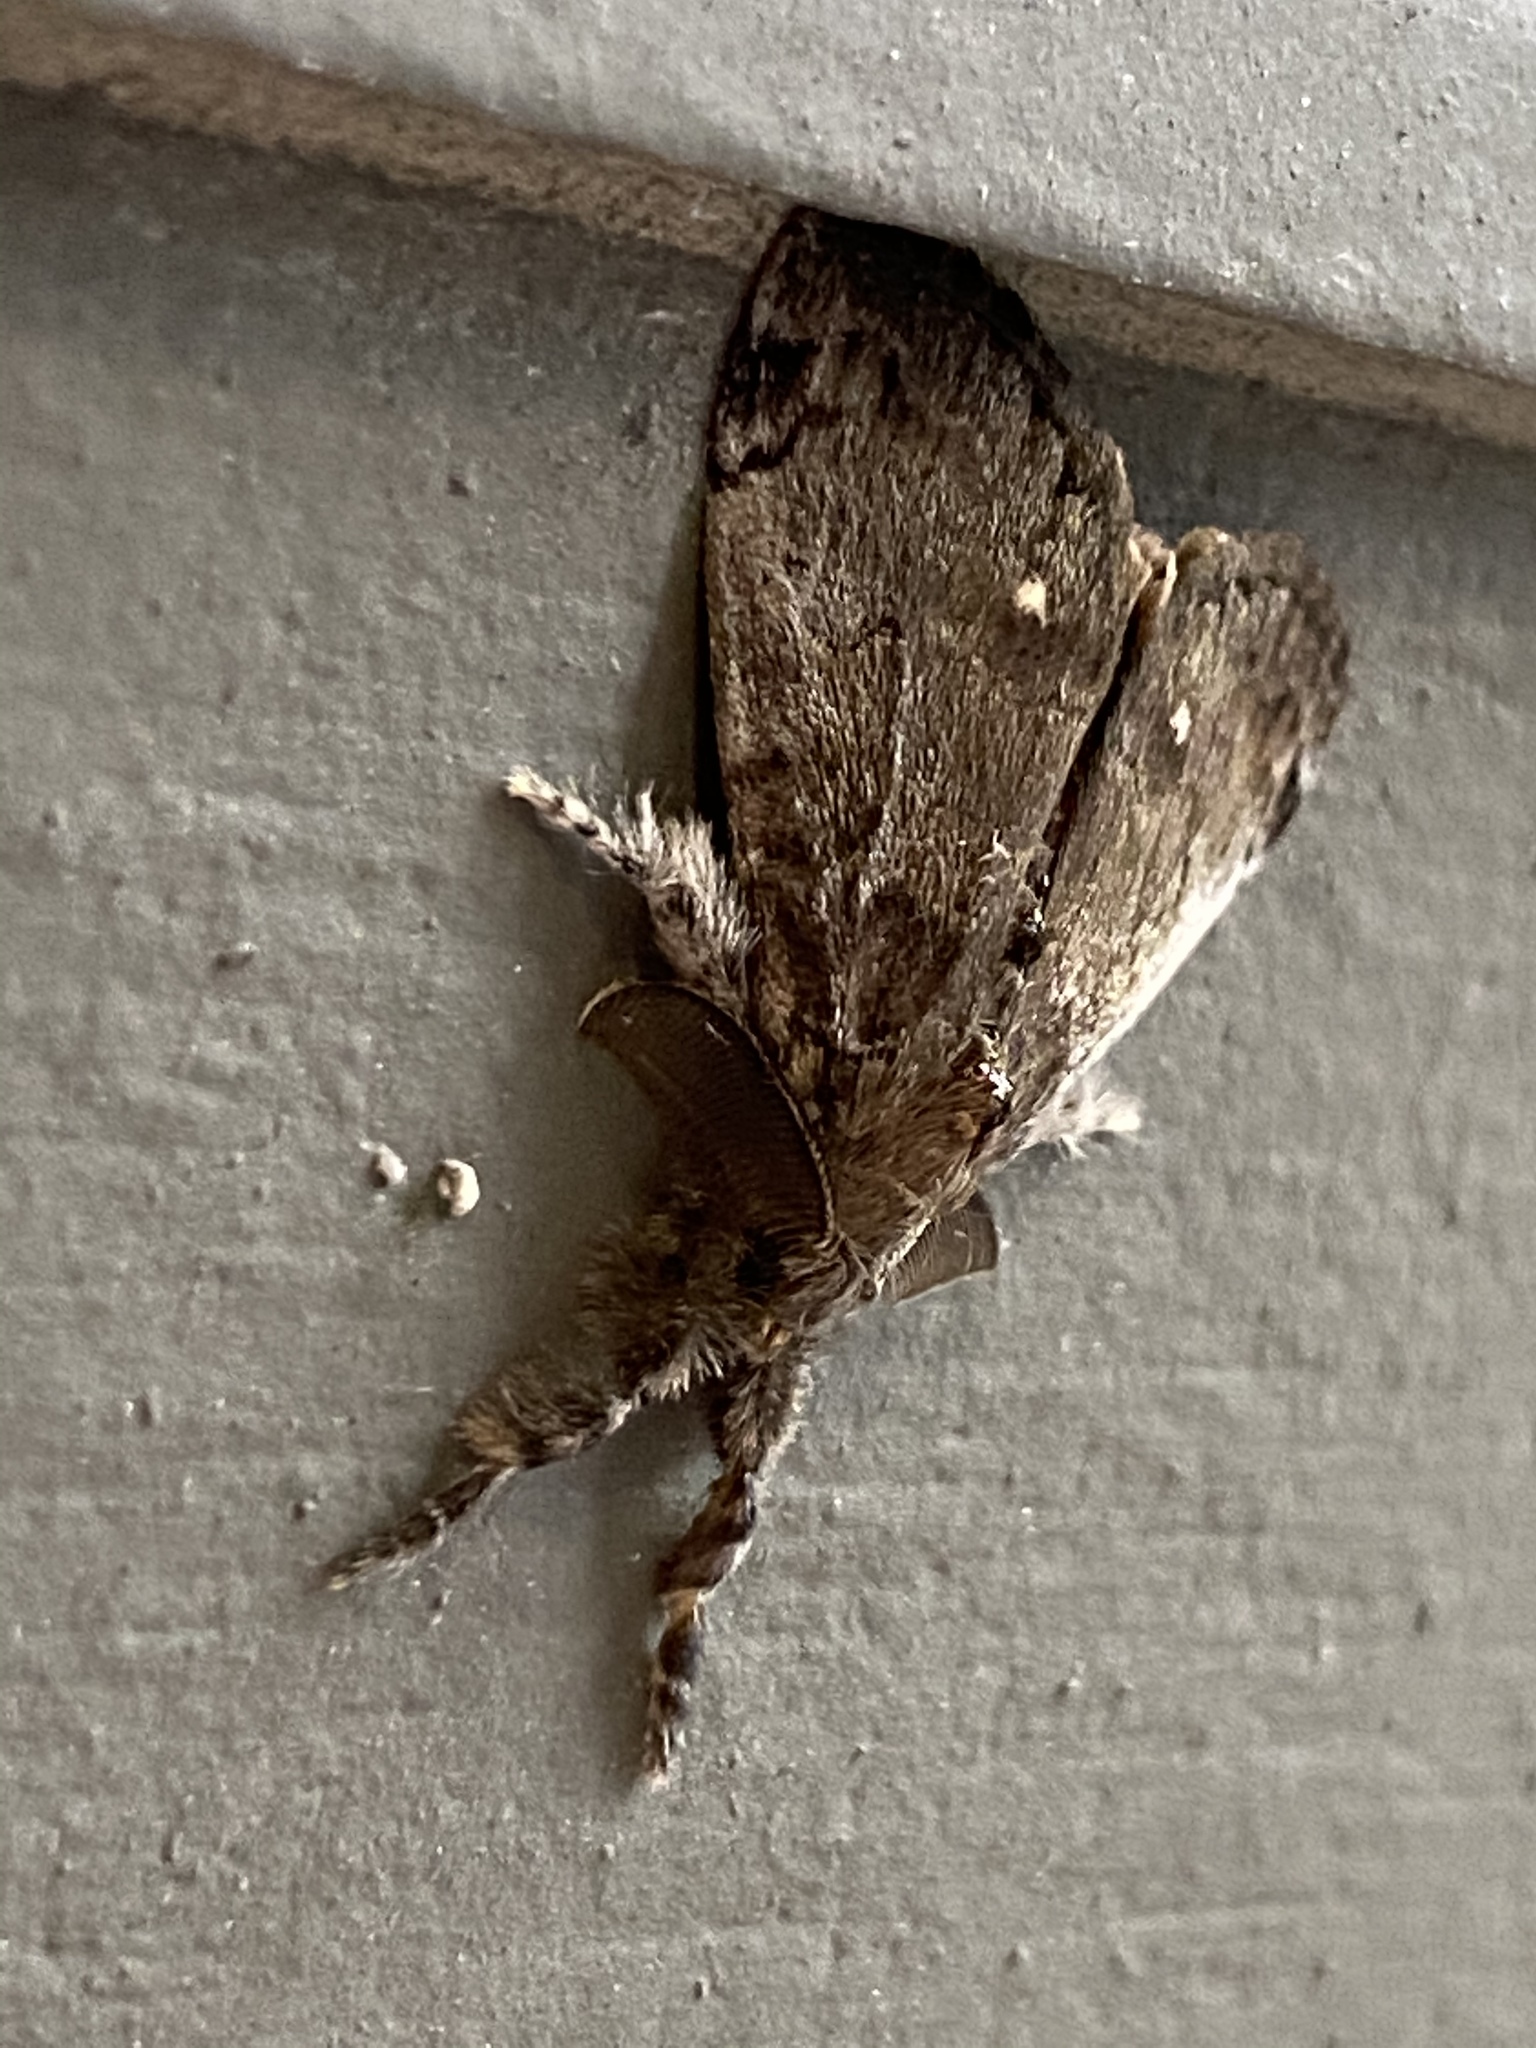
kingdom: Animalia
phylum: Arthropoda
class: Insecta
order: Lepidoptera
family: Erebidae
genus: Orgyia
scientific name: Orgyia leucostigma
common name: White-marked tussock moth
